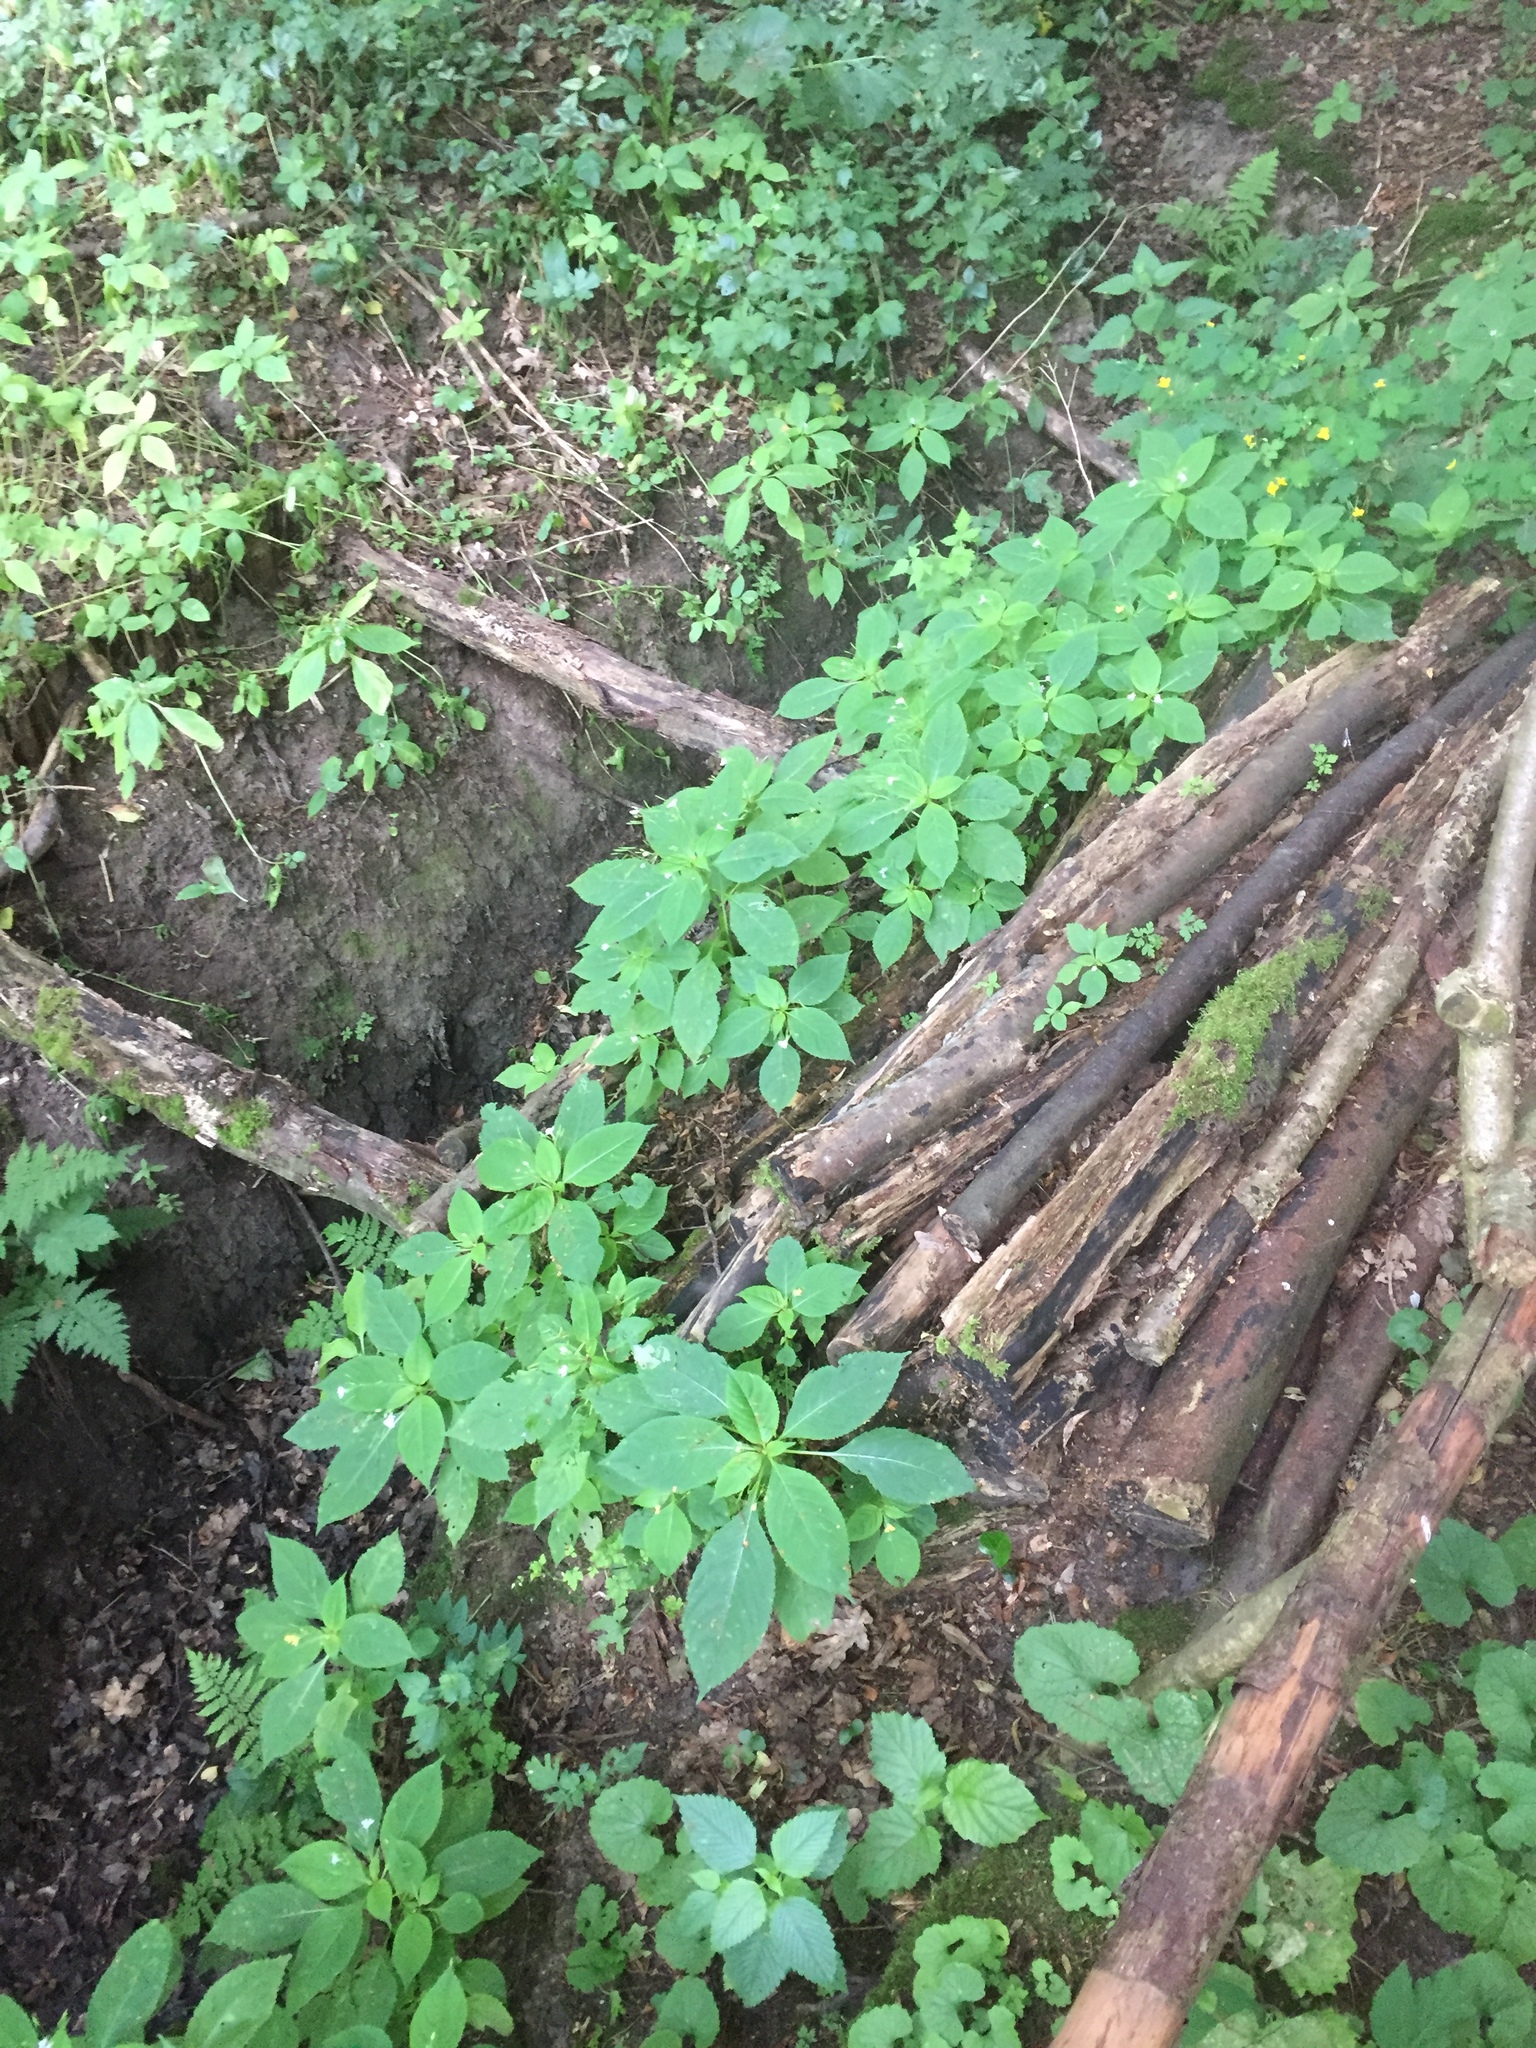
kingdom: Plantae
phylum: Tracheophyta
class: Magnoliopsida
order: Ericales
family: Balsaminaceae
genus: Impatiens
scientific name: Impatiens parviflora
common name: Small balsam
